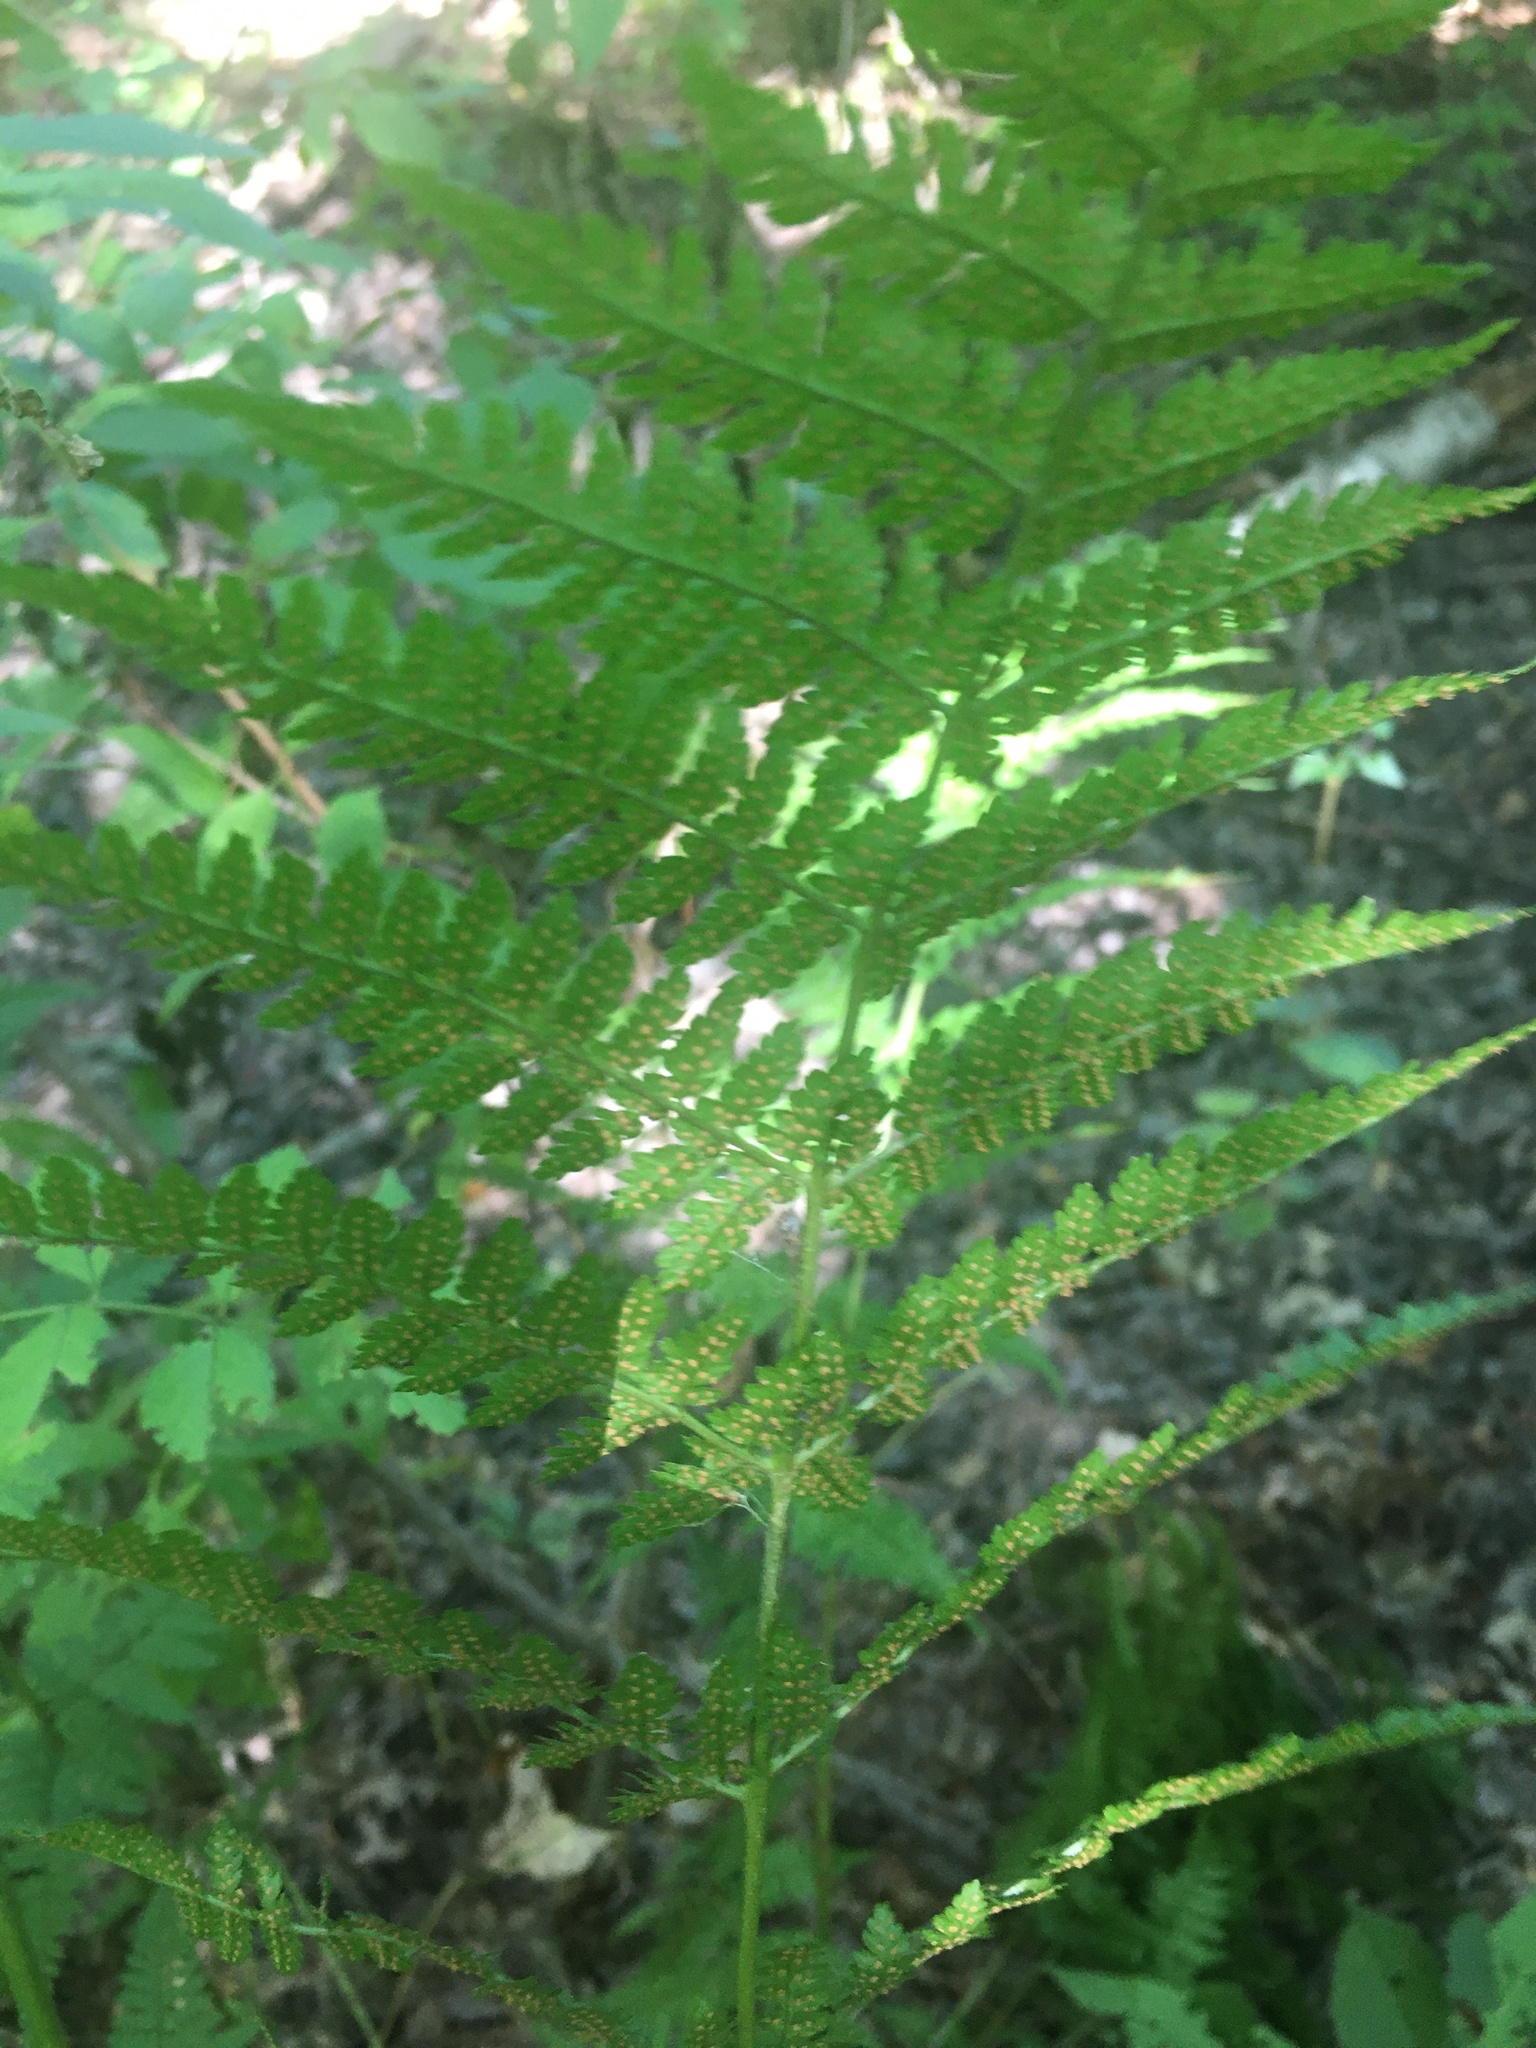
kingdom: Plantae
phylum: Tracheophyta
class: Polypodiopsida
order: Polypodiales
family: Dryopteridaceae
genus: Dryopteris
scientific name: Dryopteris intermedia
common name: Evergreen wood fern
